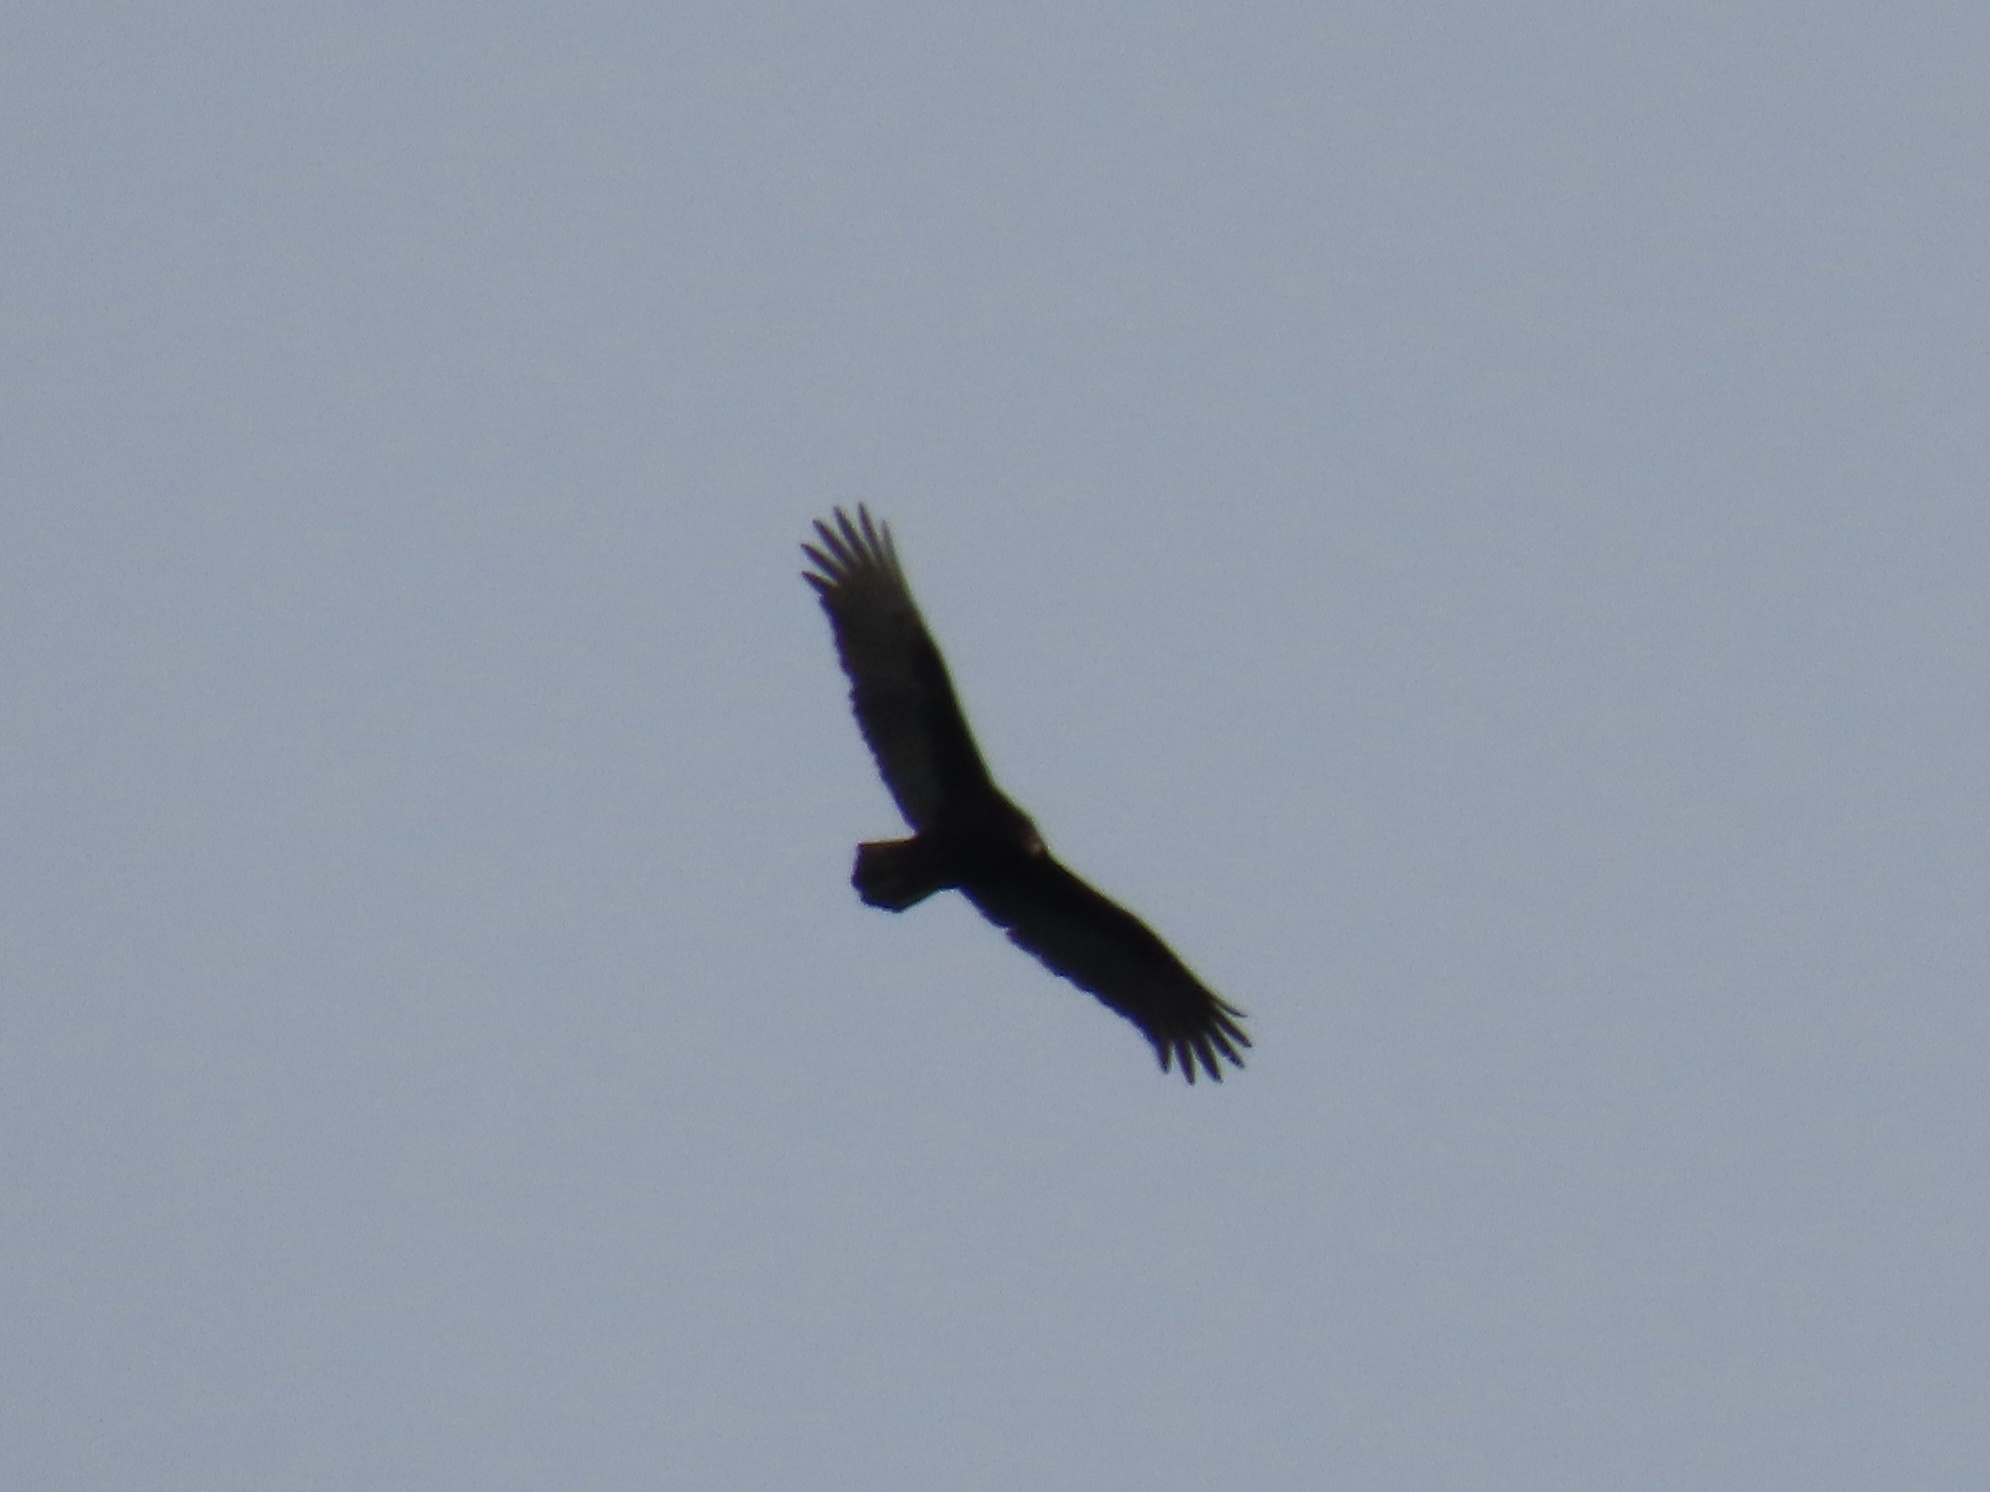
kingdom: Animalia
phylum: Chordata
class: Aves
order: Accipitriformes
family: Cathartidae
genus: Cathartes
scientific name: Cathartes aura
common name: Turkey vulture
